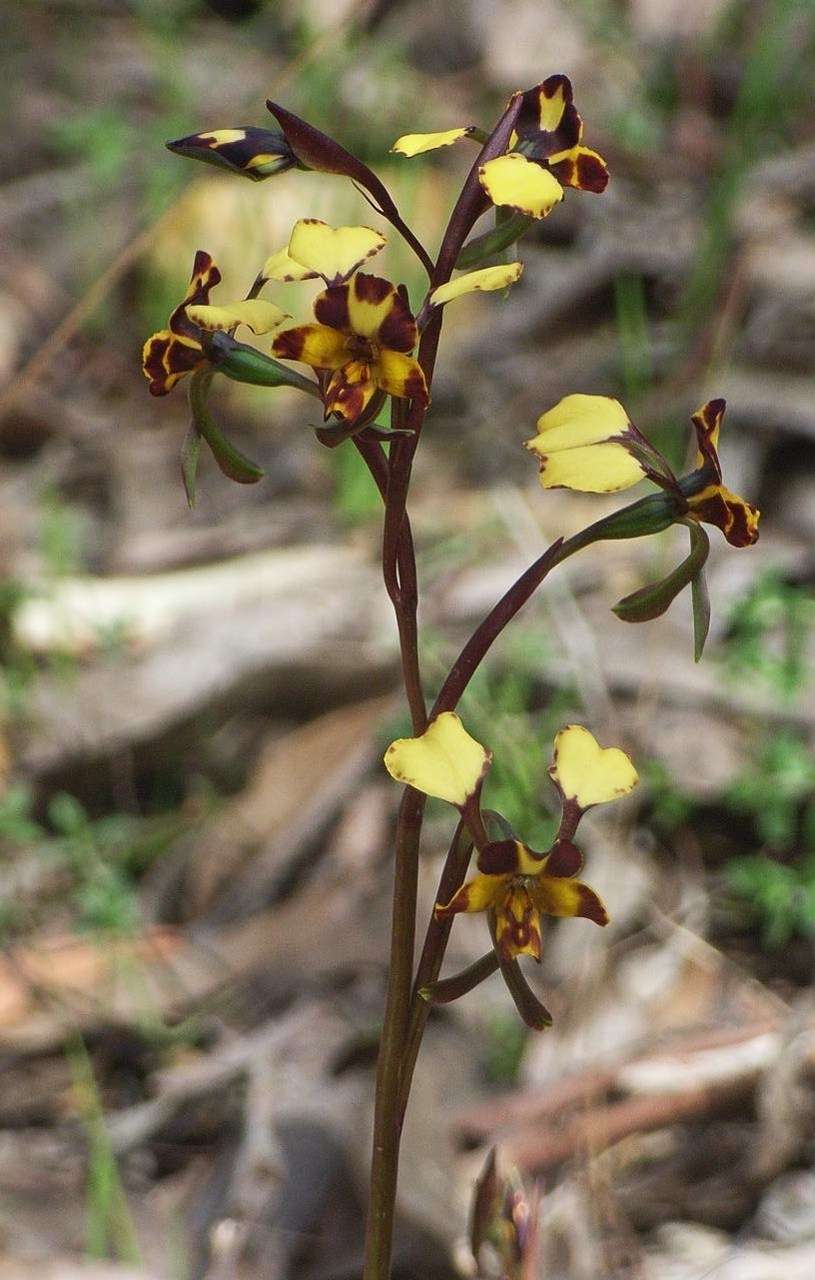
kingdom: Plantae
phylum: Tracheophyta
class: Liliopsida
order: Asparagales
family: Orchidaceae
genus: Diuris
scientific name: Diuris pardina
